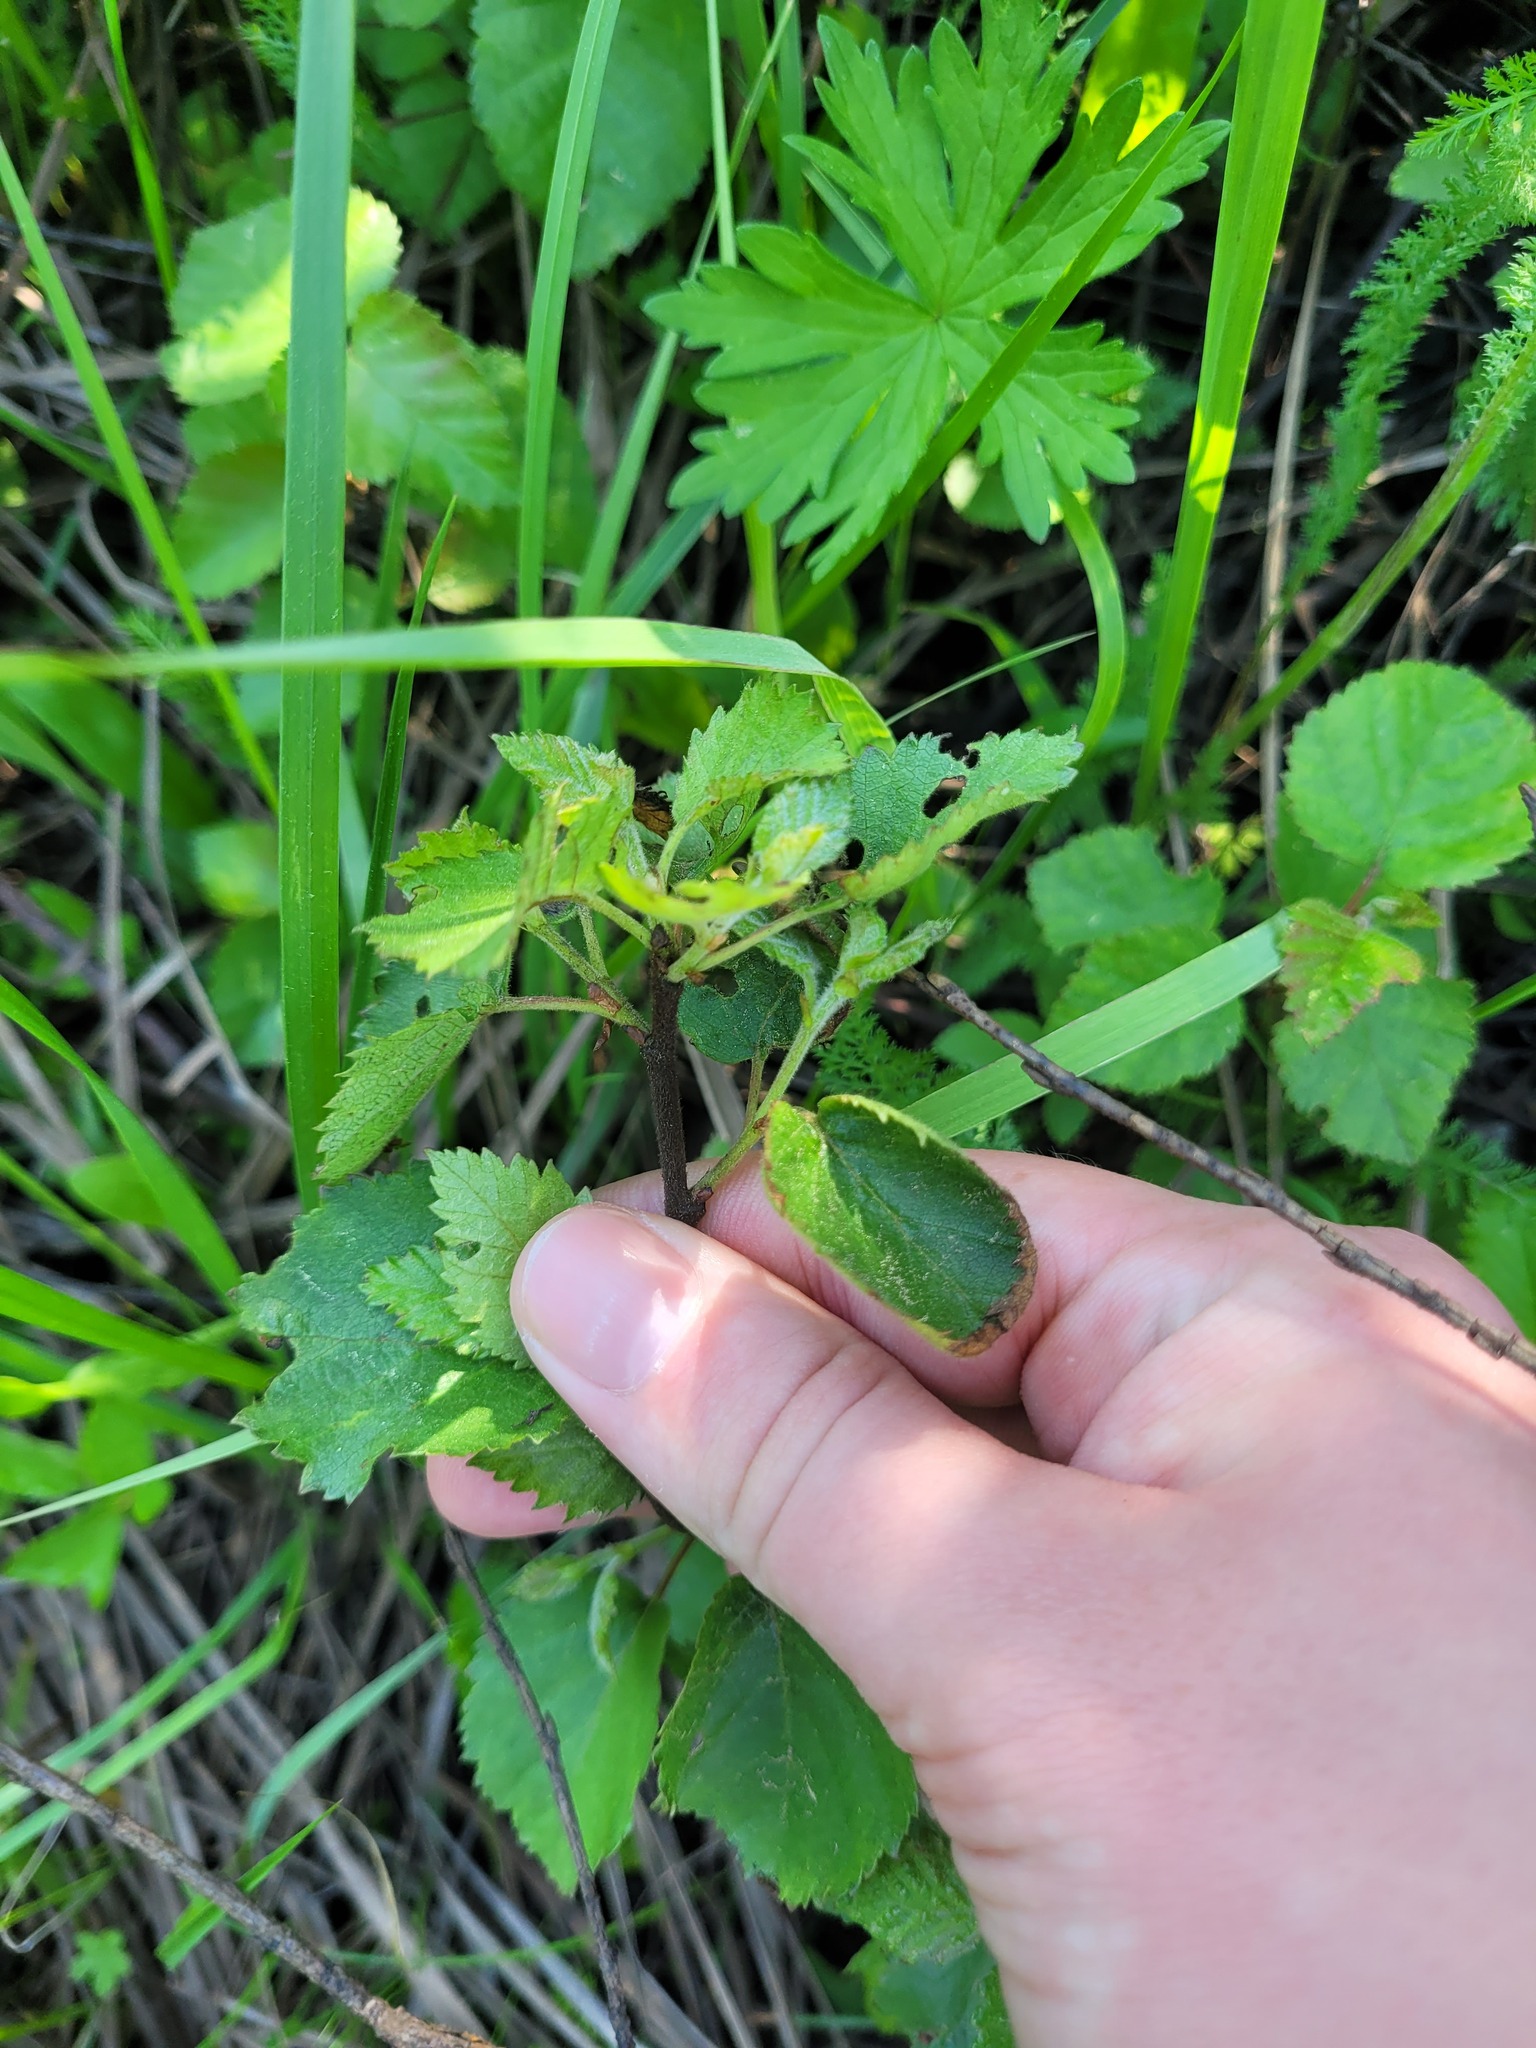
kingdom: Plantae
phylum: Tracheophyta
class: Magnoliopsida
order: Fagales
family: Betulaceae
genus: Betula
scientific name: Betula pubescens
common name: Downy birch
